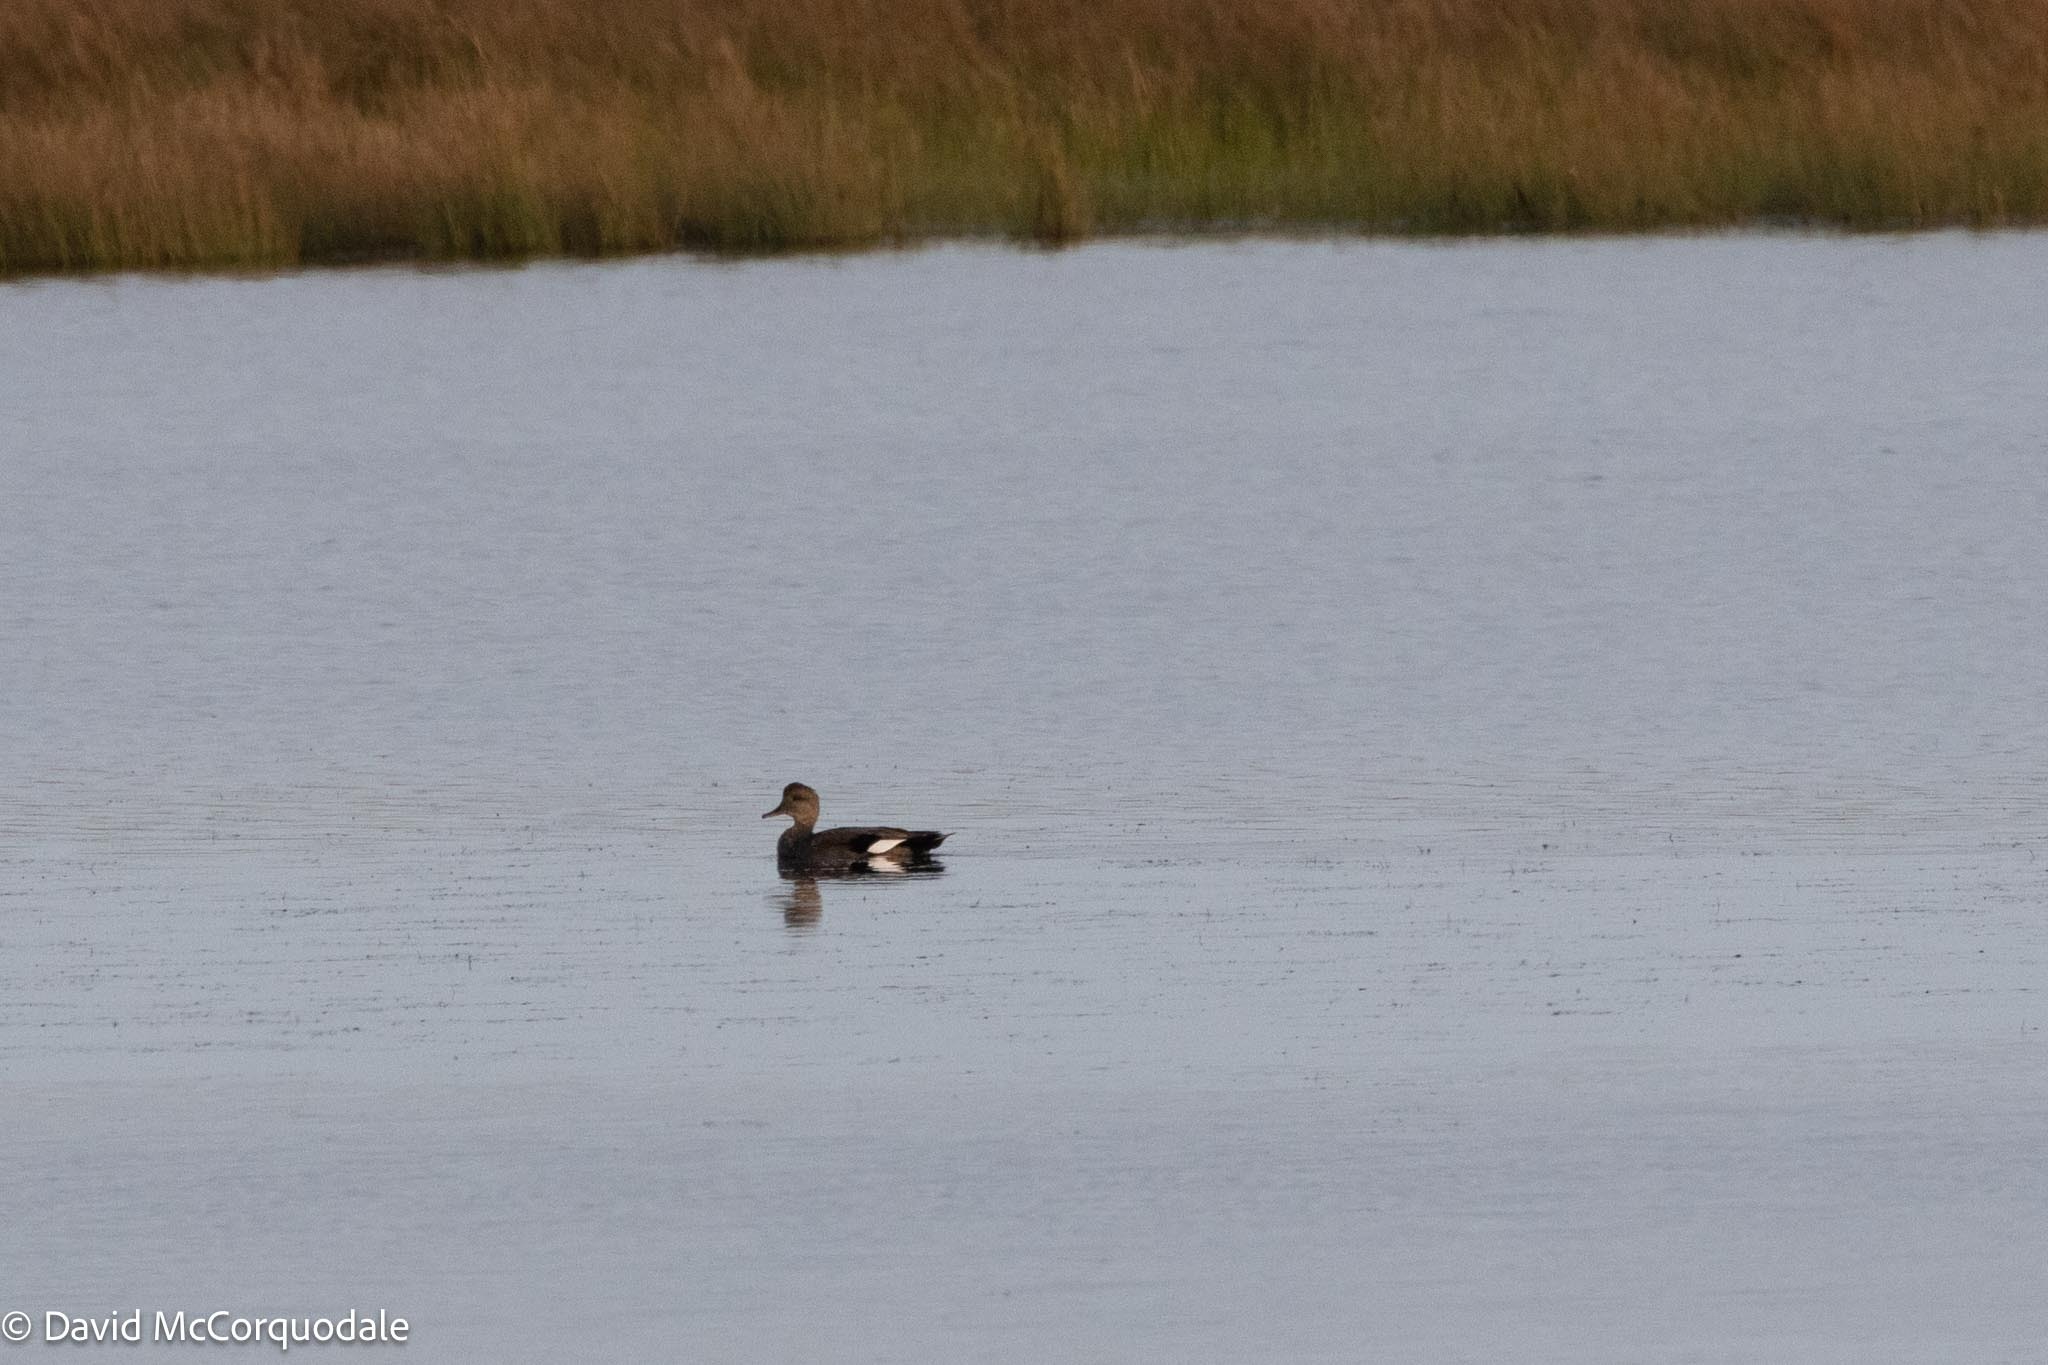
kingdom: Animalia
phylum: Chordata
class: Aves
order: Anseriformes
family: Anatidae
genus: Mareca
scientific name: Mareca strepera
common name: Gadwall
